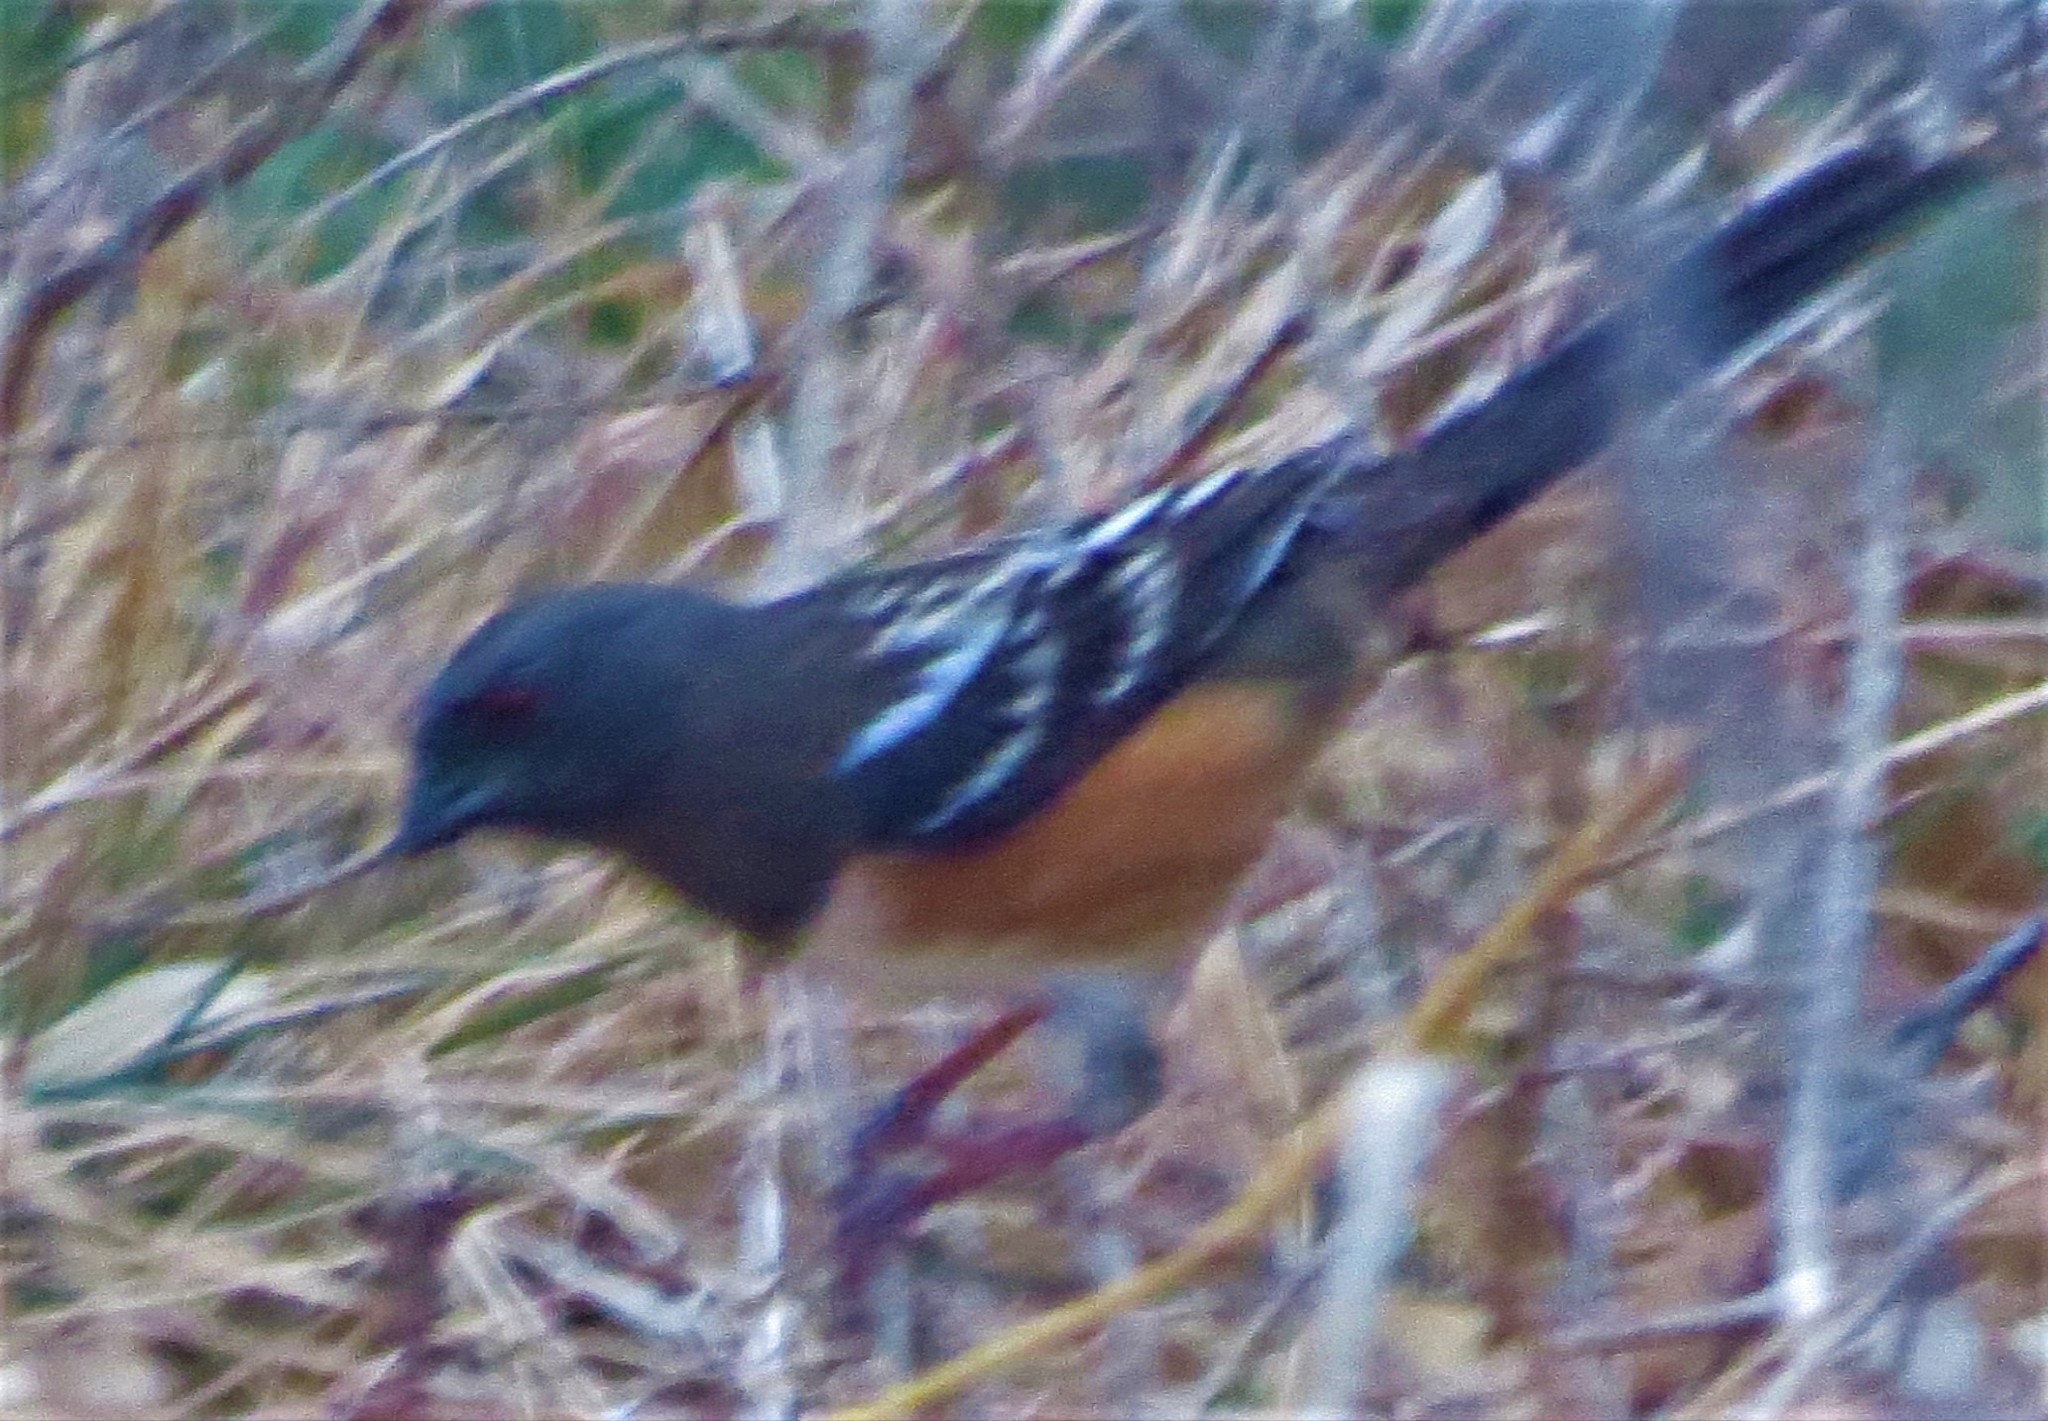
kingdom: Animalia
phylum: Chordata
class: Aves
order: Passeriformes
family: Passerellidae
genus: Pipilo
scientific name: Pipilo maculatus
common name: Spotted towhee
